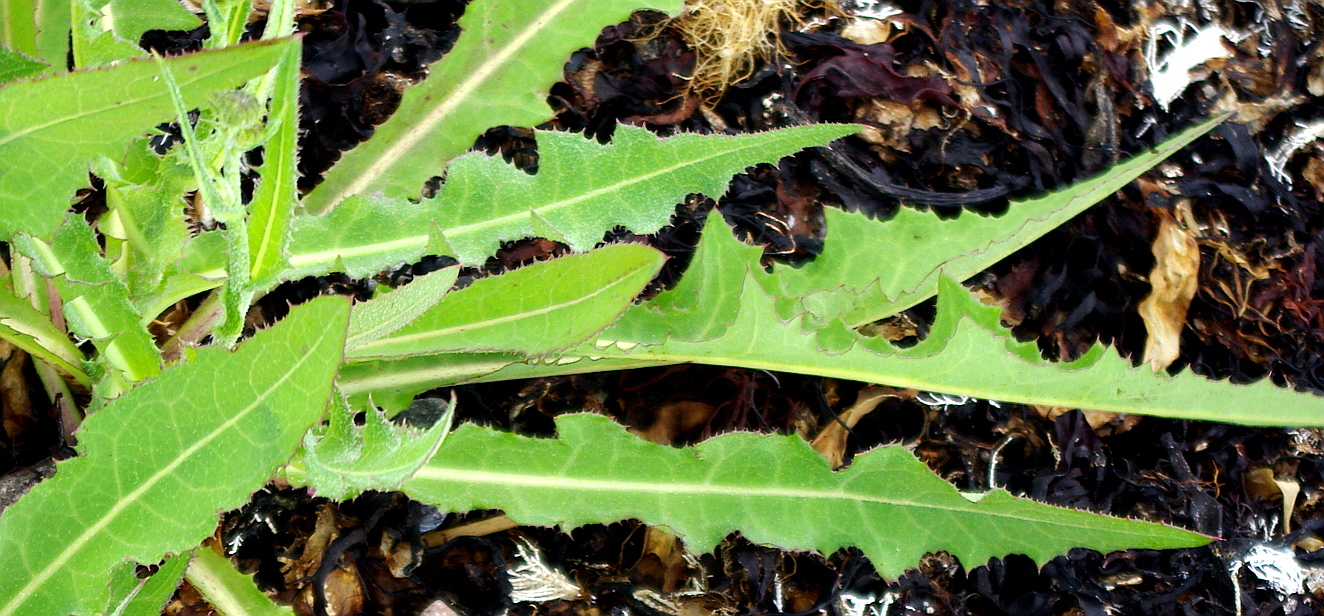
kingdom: Plantae
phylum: Tracheophyta
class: Magnoliopsida
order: Asterales
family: Asteraceae
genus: Sonchus
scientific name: Sonchus arvensis
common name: Perennial sow-thistle
